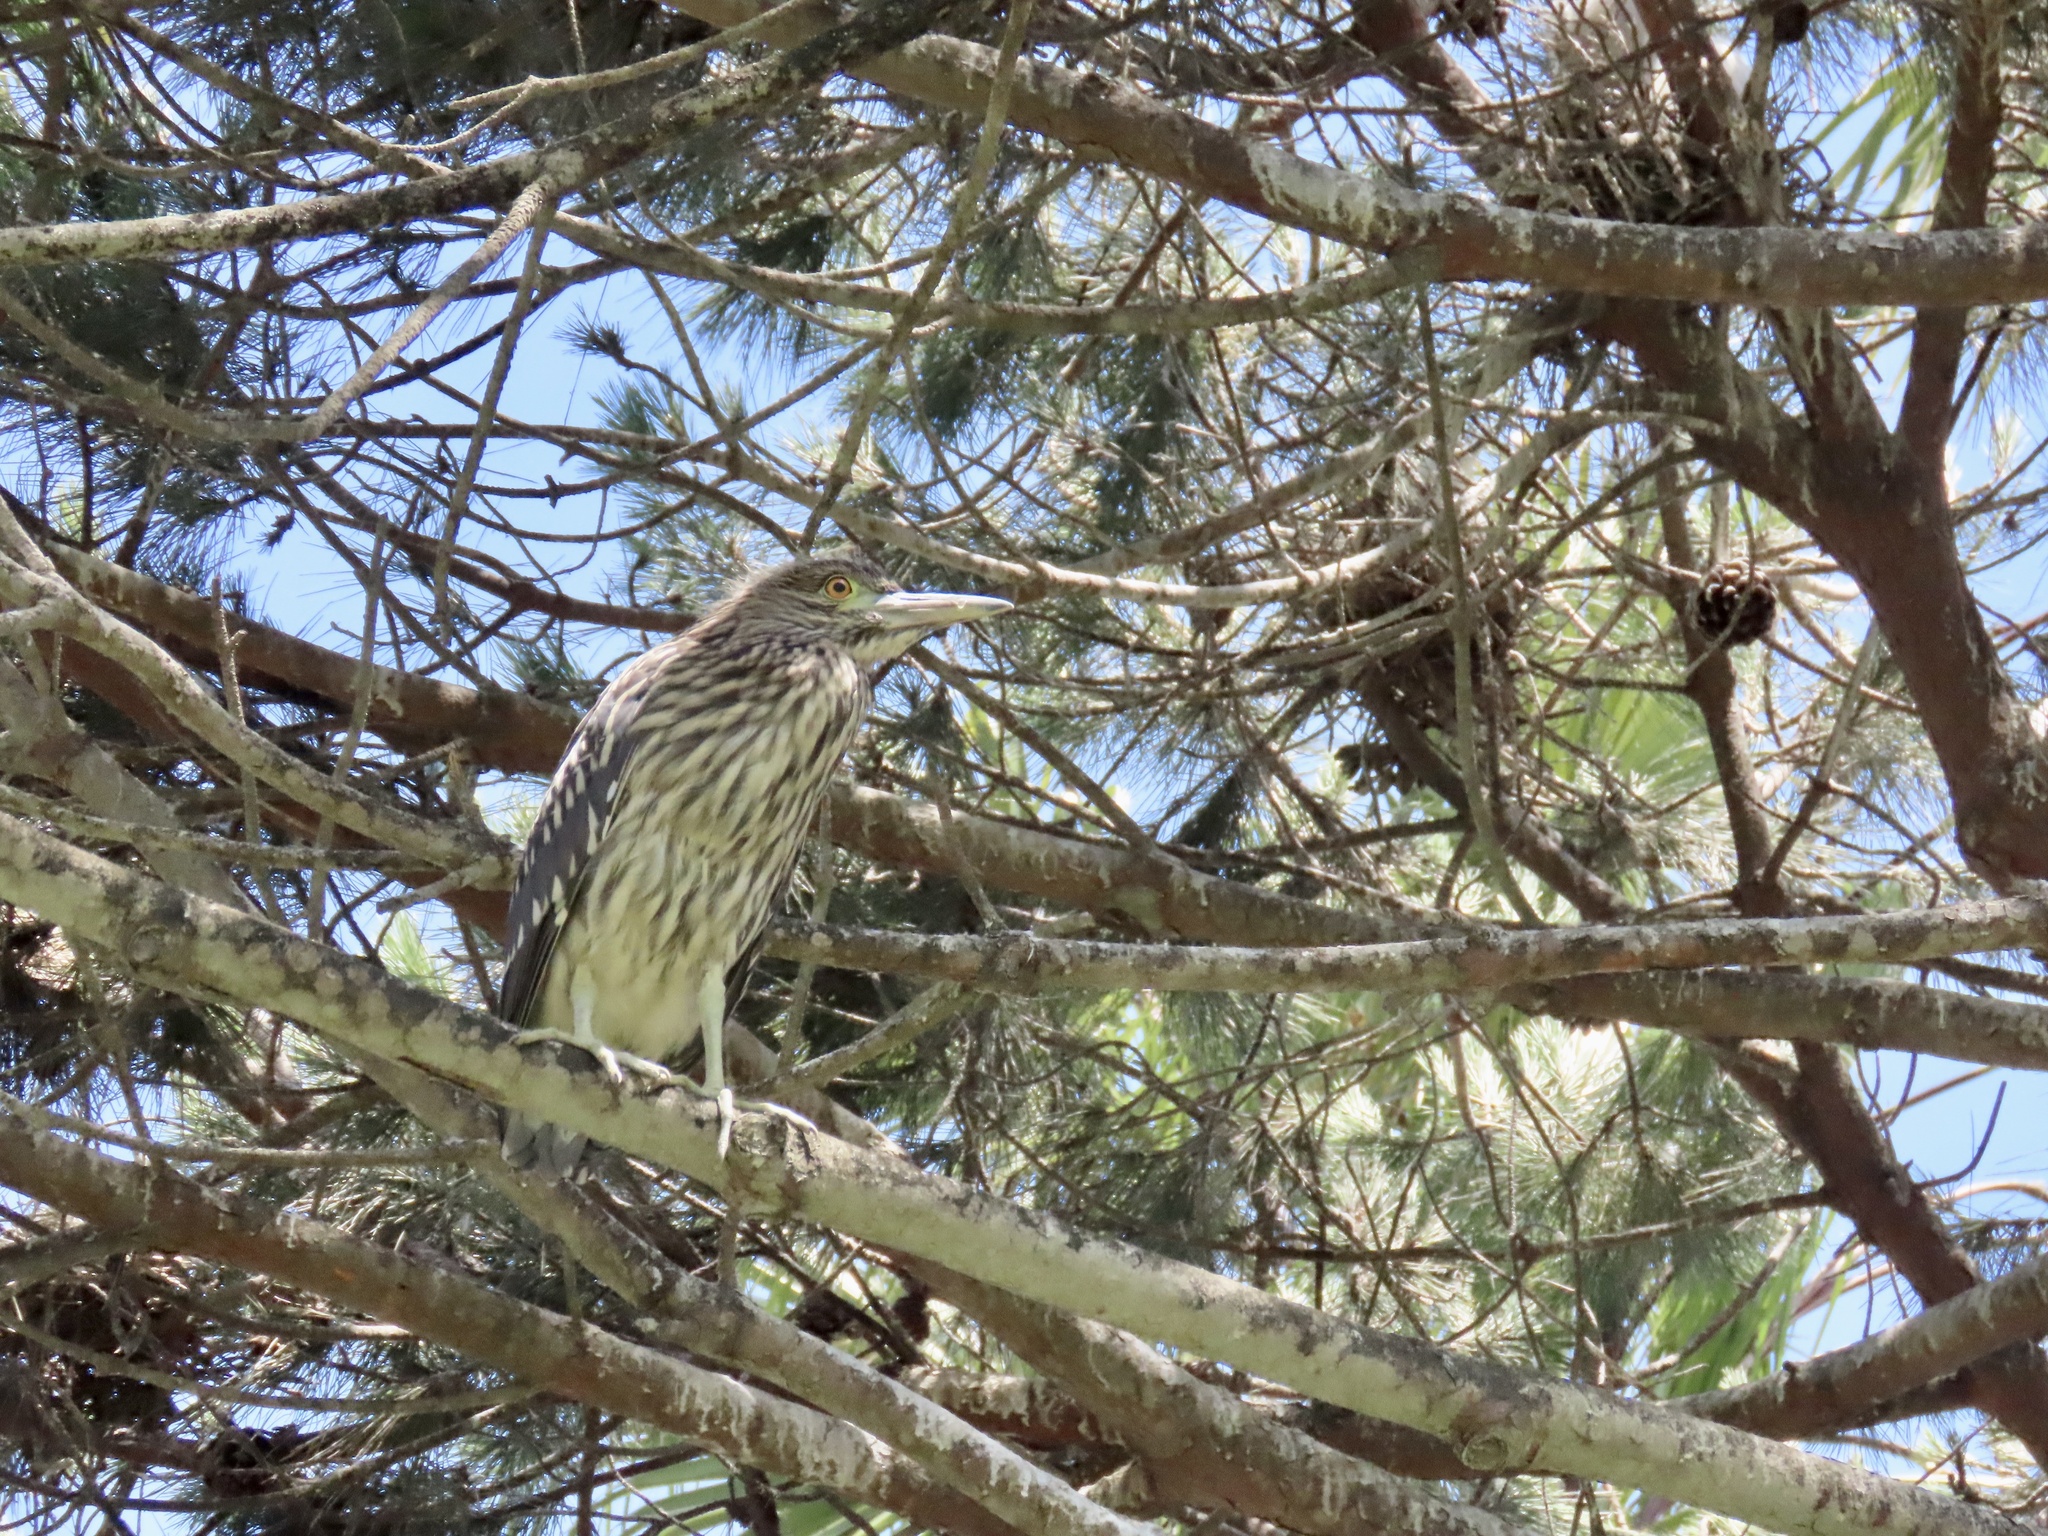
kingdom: Animalia
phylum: Chordata
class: Aves
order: Pelecaniformes
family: Ardeidae
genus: Nycticorax
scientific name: Nycticorax nycticorax
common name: Black-crowned night heron
